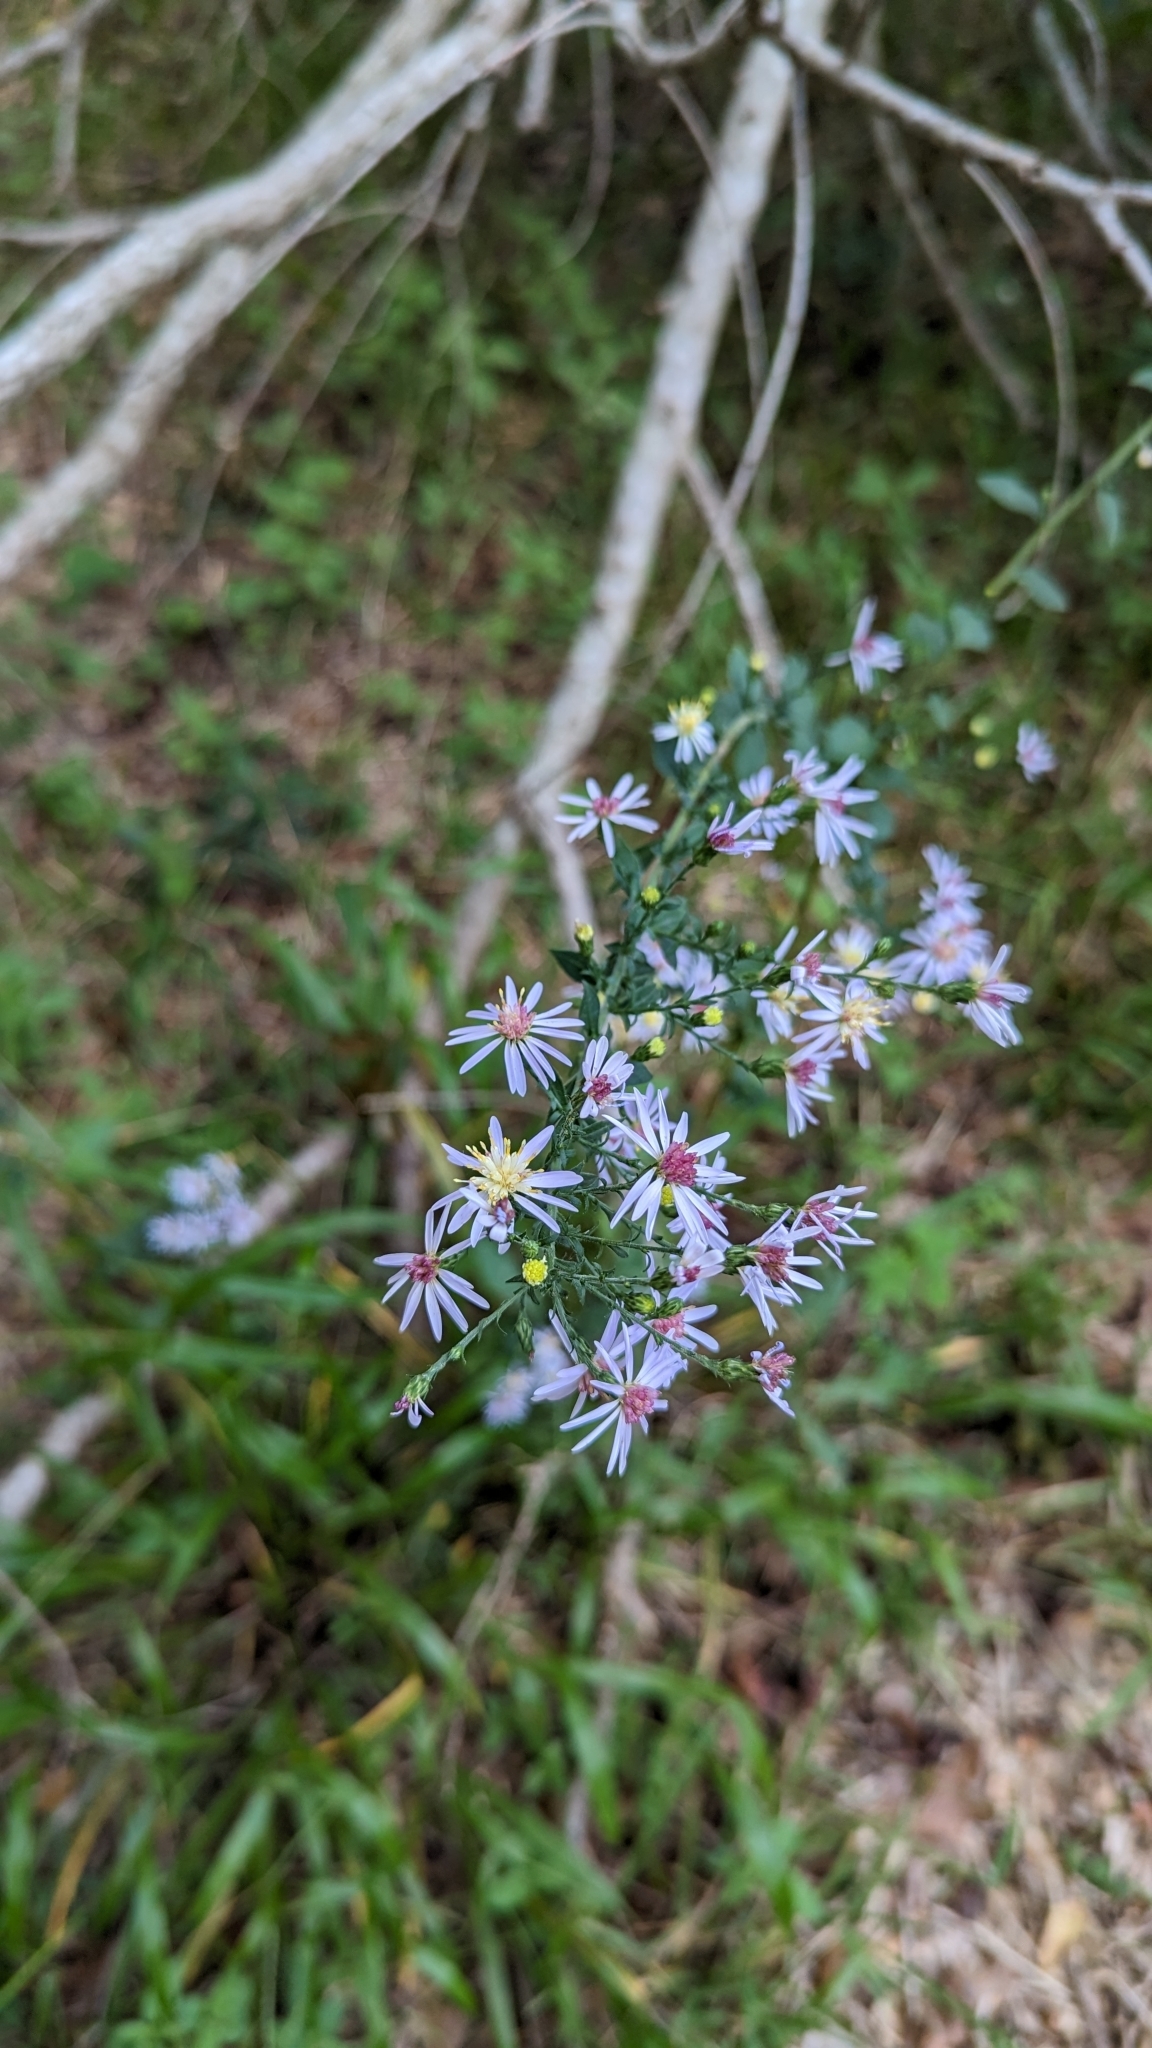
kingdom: Plantae
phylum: Tracheophyta
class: Magnoliopsida
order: Asterales
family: Asteraceae
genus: Symphyotrichum
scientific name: Symphyotrichum drummondii
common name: Drummond's aster
